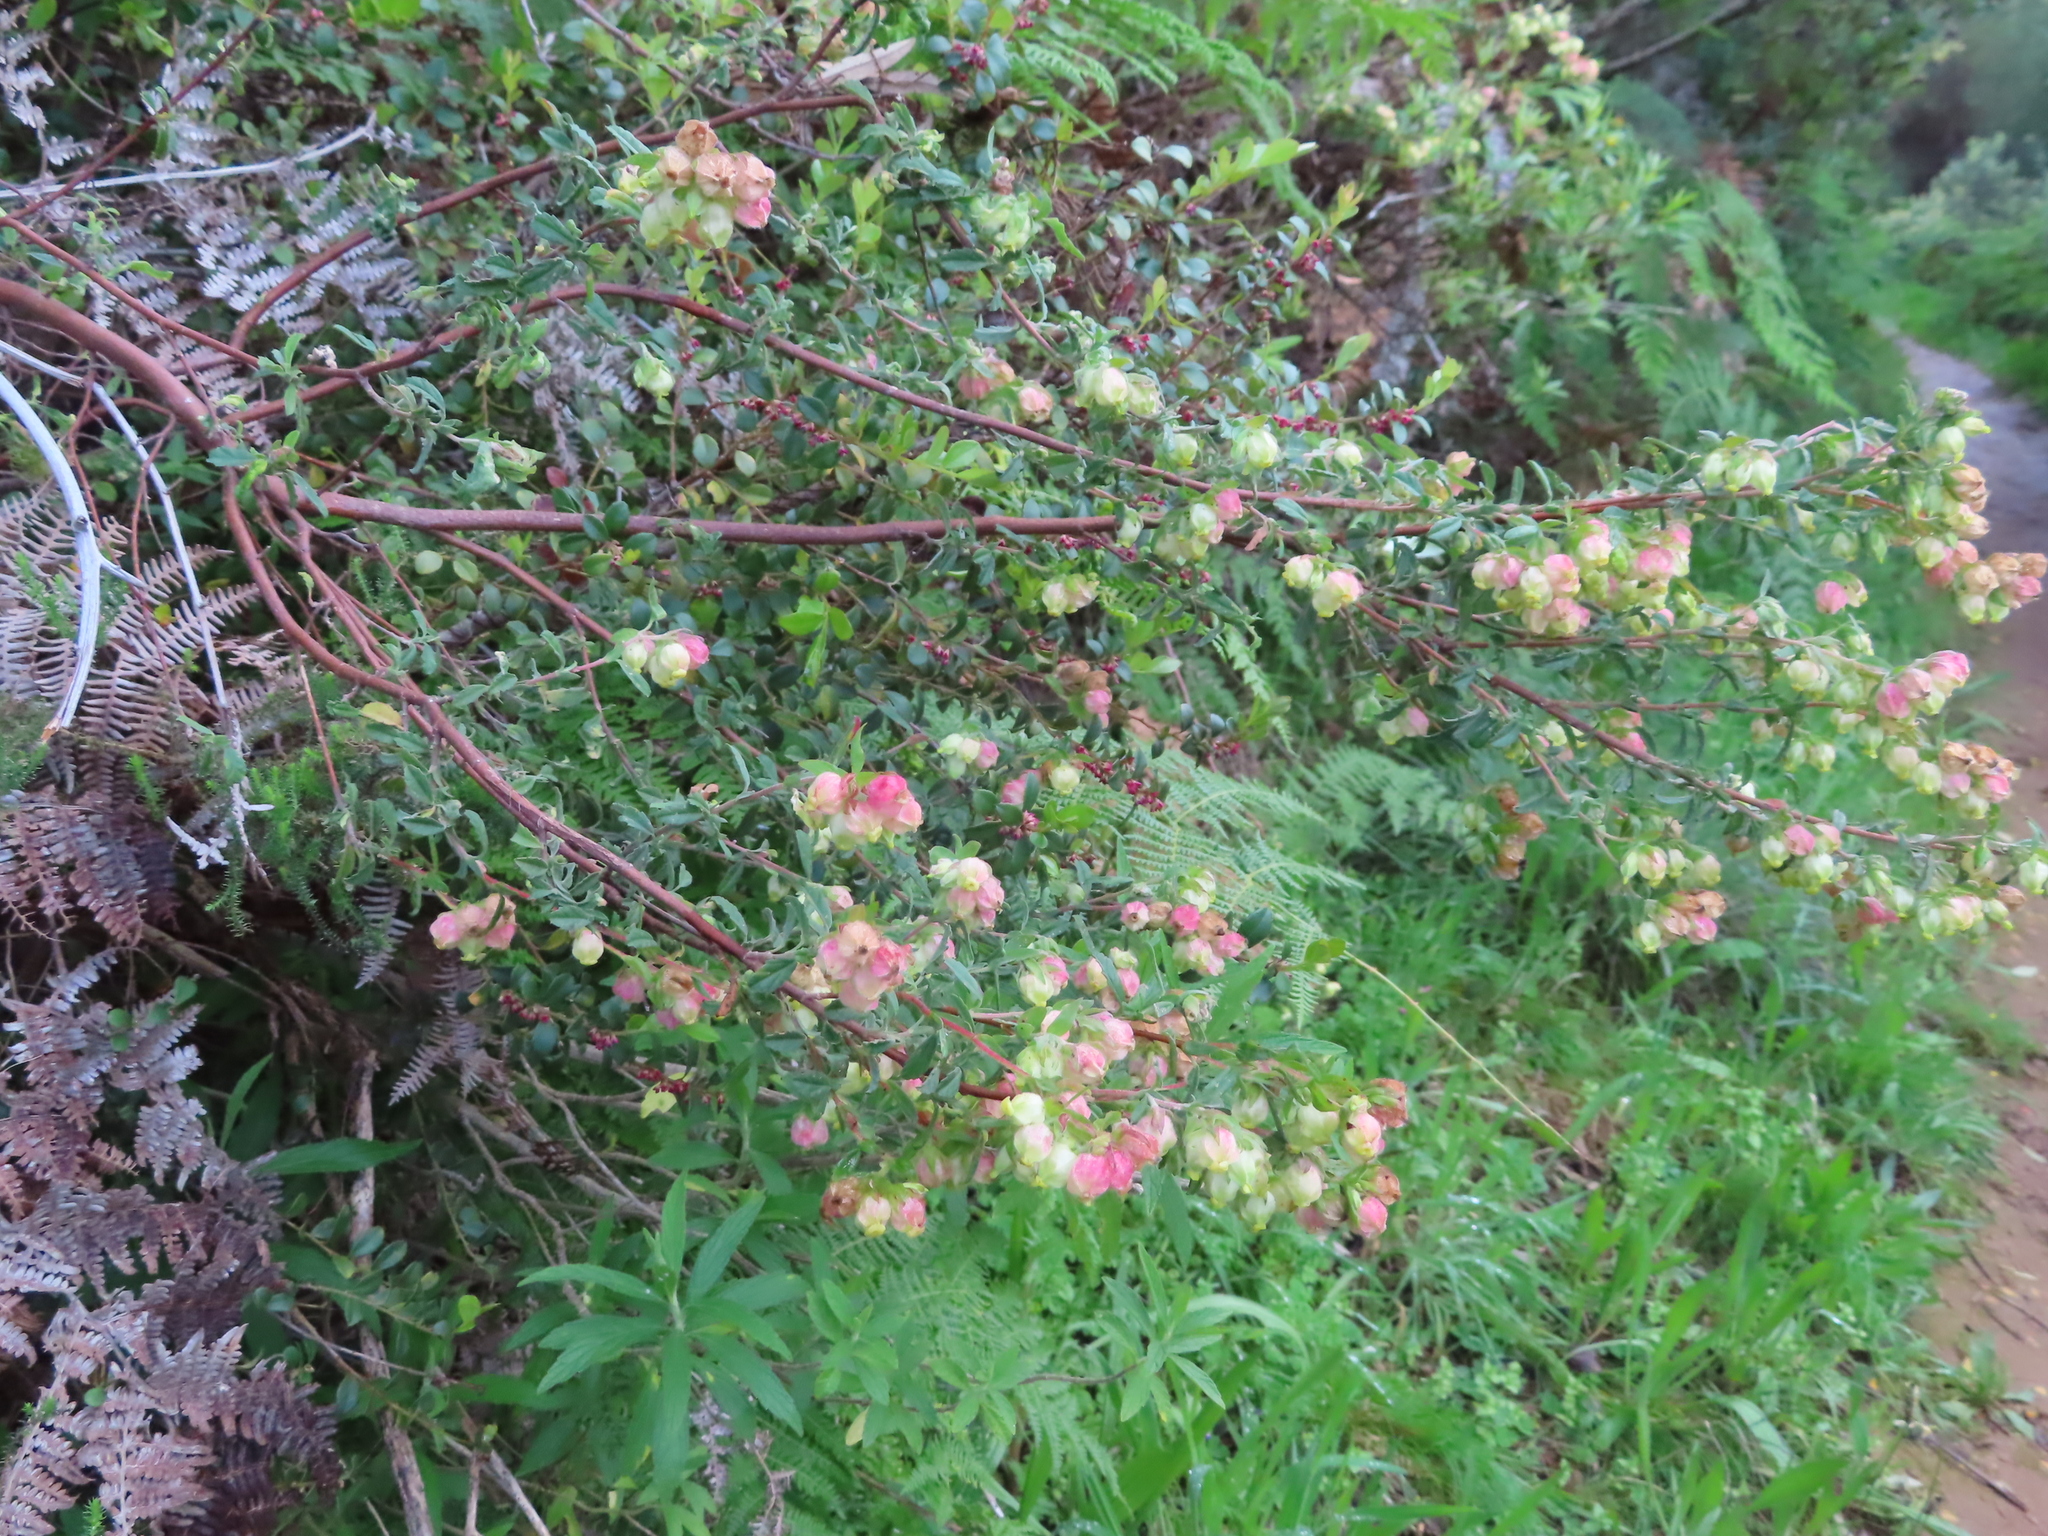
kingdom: Plantae
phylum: Tracheophyta
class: Magnoliopsida
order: Malvales
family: Malvaceae
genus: Hermannia
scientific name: Hermannia hyssopifolia
